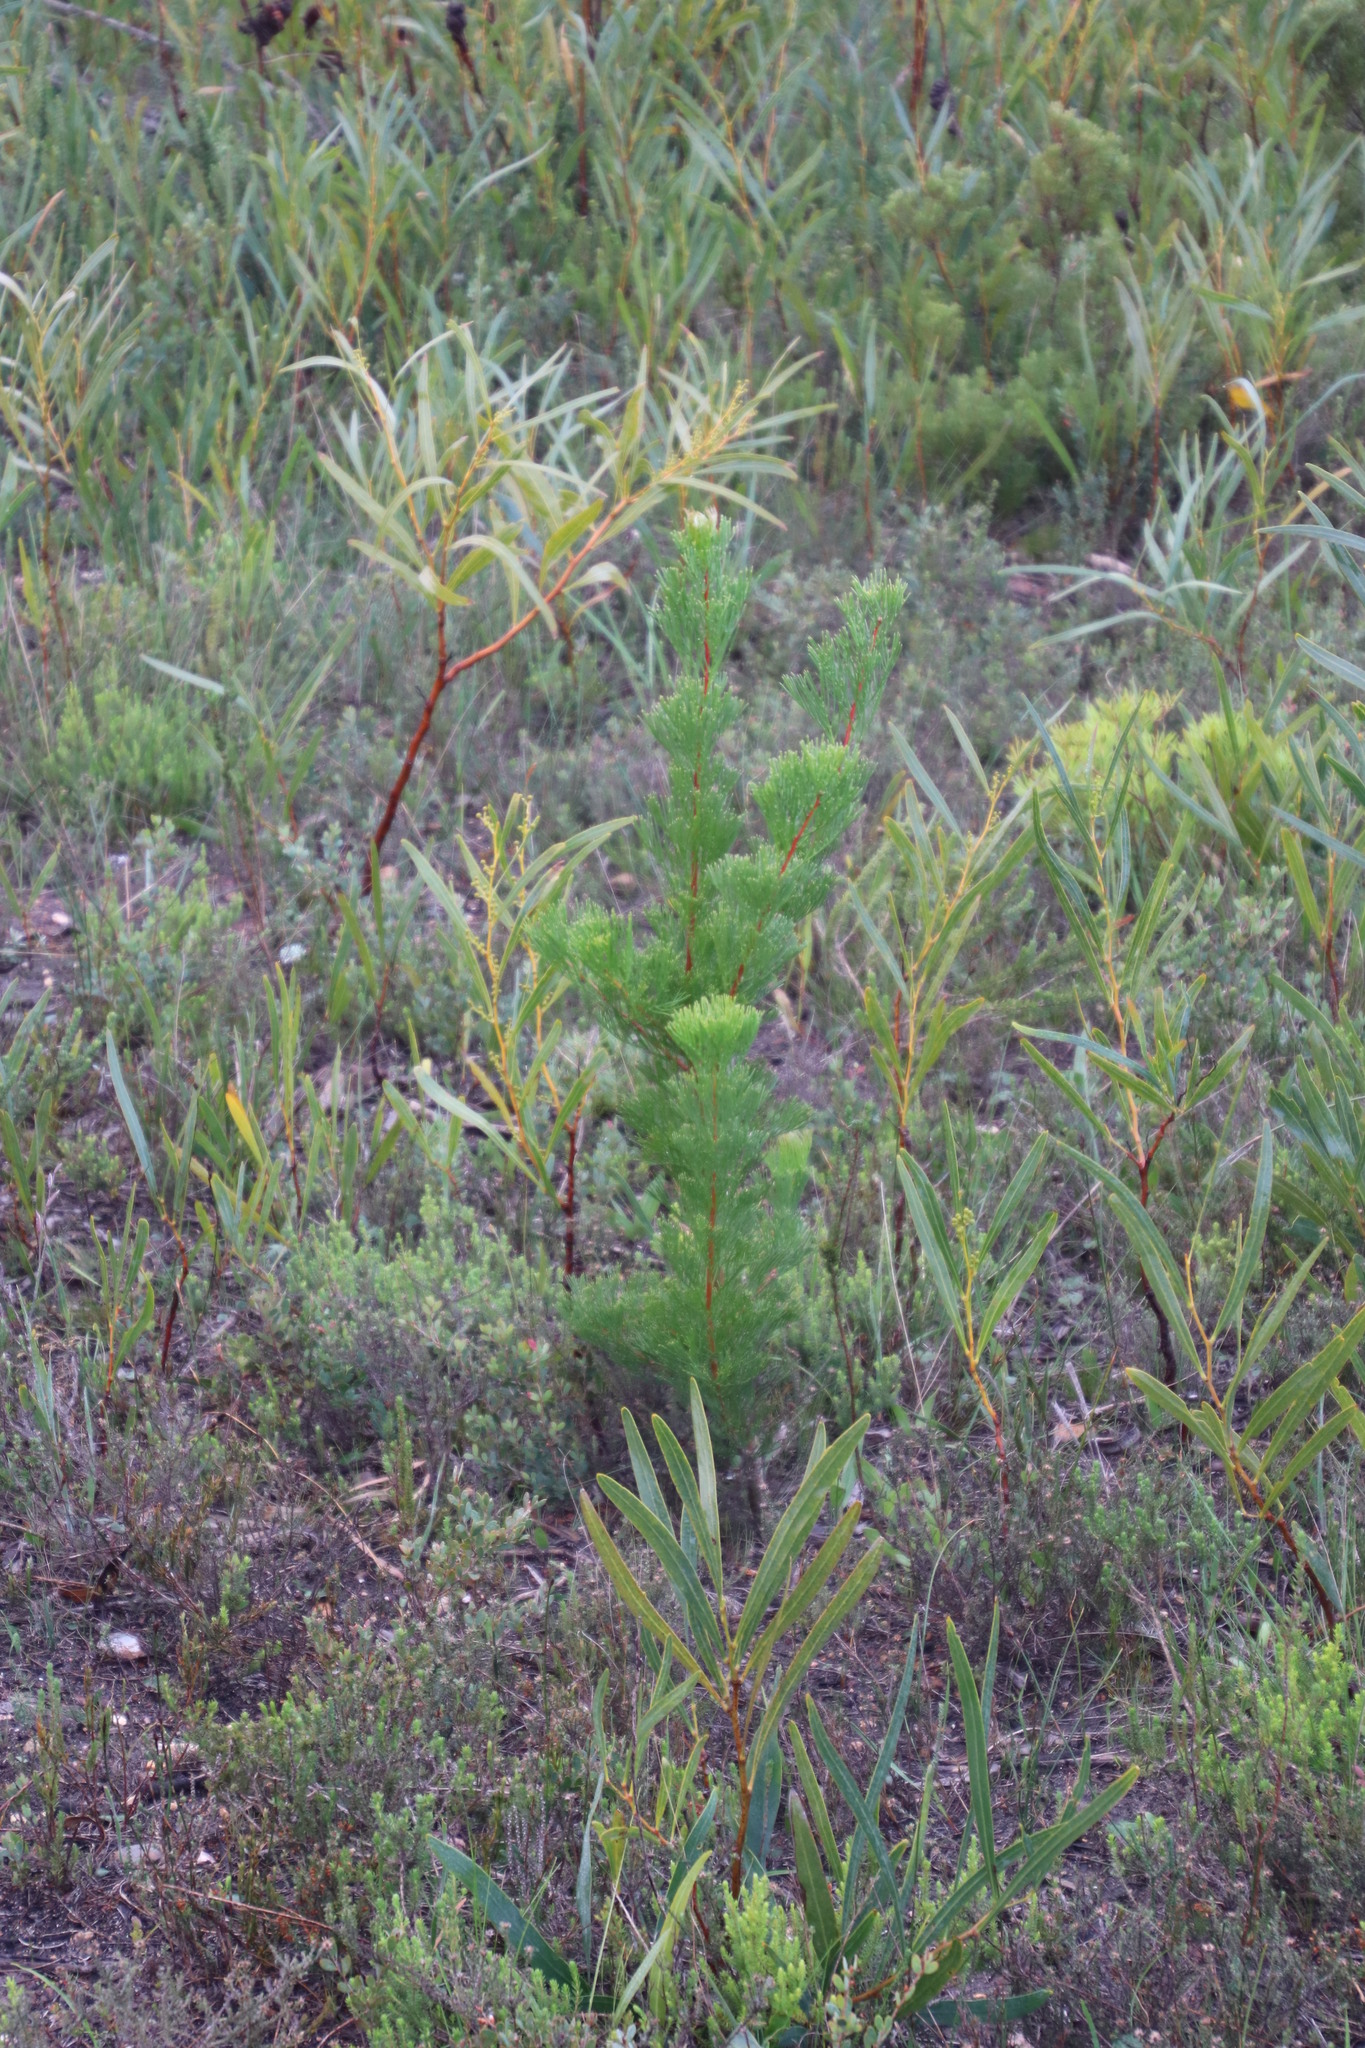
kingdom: Plantae
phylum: Tracheophyta
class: Magnoliopsida
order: Proteales
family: Proteaceae
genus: Hakea
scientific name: Hakea drupacea
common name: Sweet hakea
